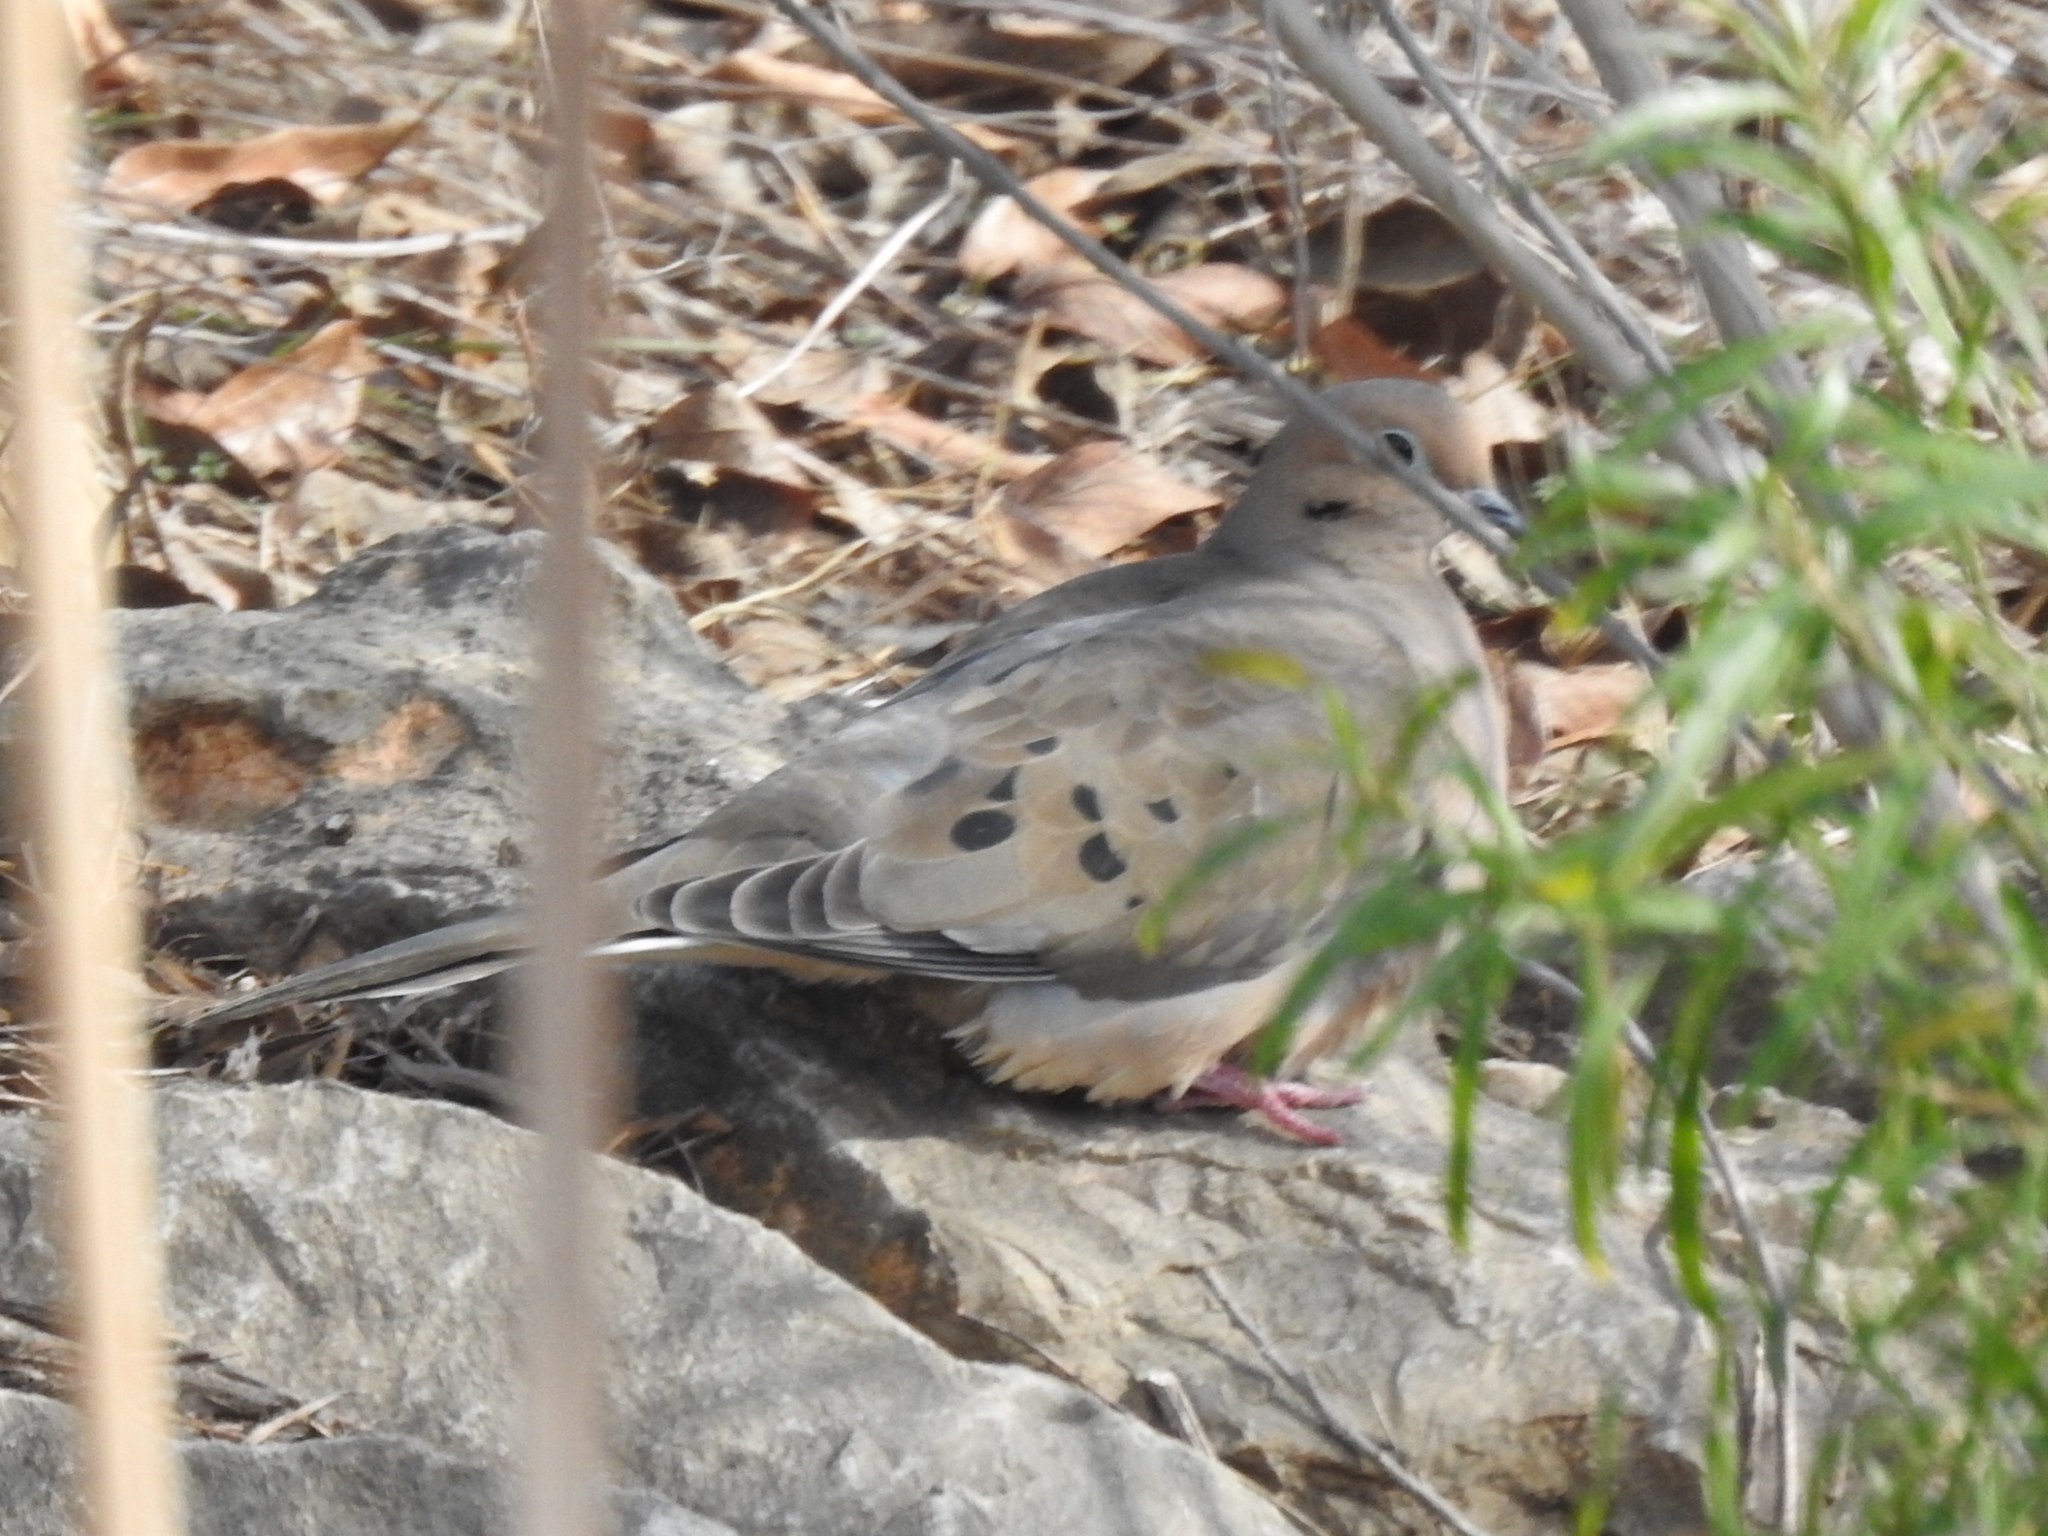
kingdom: Animalia
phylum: Chordata
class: Aves
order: Columbiformes
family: Columbidae
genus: Zenaida
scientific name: Zenaida macroura
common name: Mourning dove
